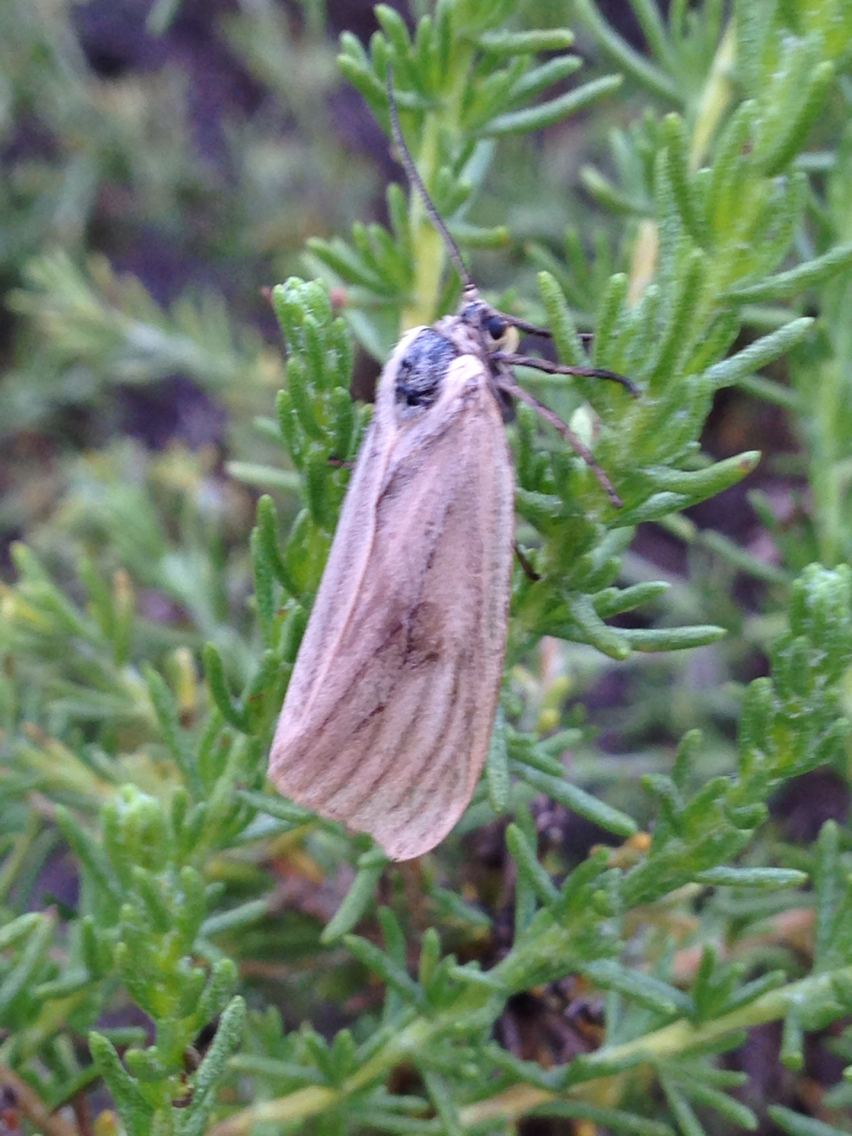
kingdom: Animalia
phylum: Arthropoda
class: Insecta
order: Lepidoptera
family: Notodontidae
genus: Phryganidia
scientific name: Phryganidia californica
